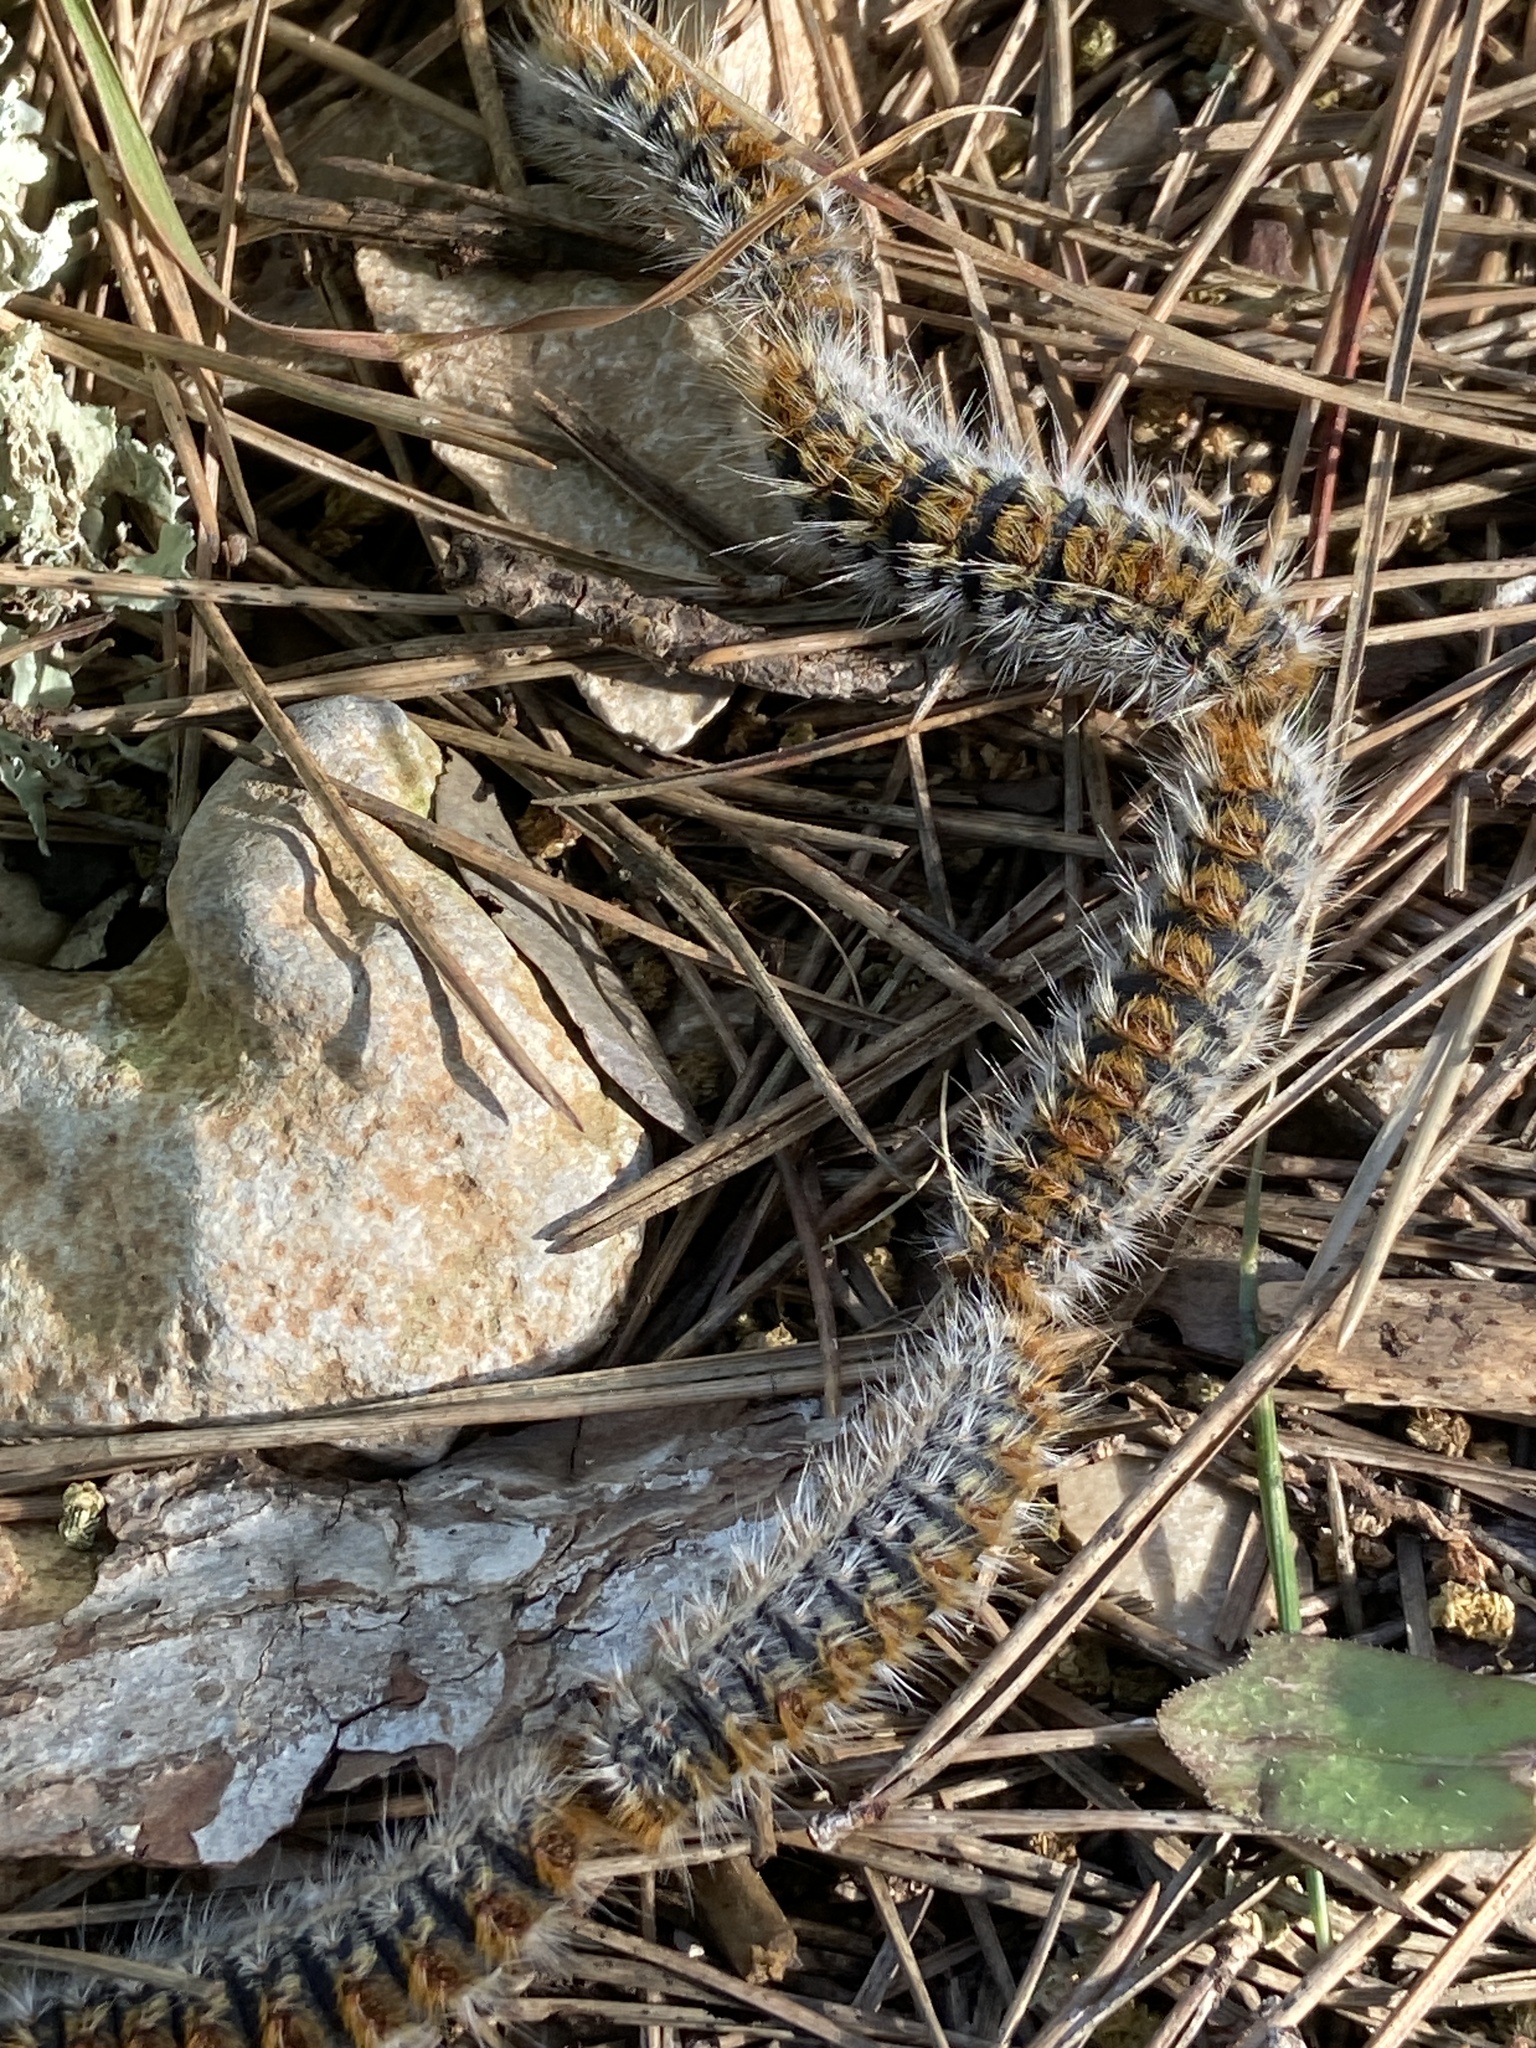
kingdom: Animalia
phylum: Arthropoda
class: Insecta
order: Lepidoptera
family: Notodontidae
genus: Thaumetopoea
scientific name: Thaumetopoea pityocampa
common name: Pine processionary
